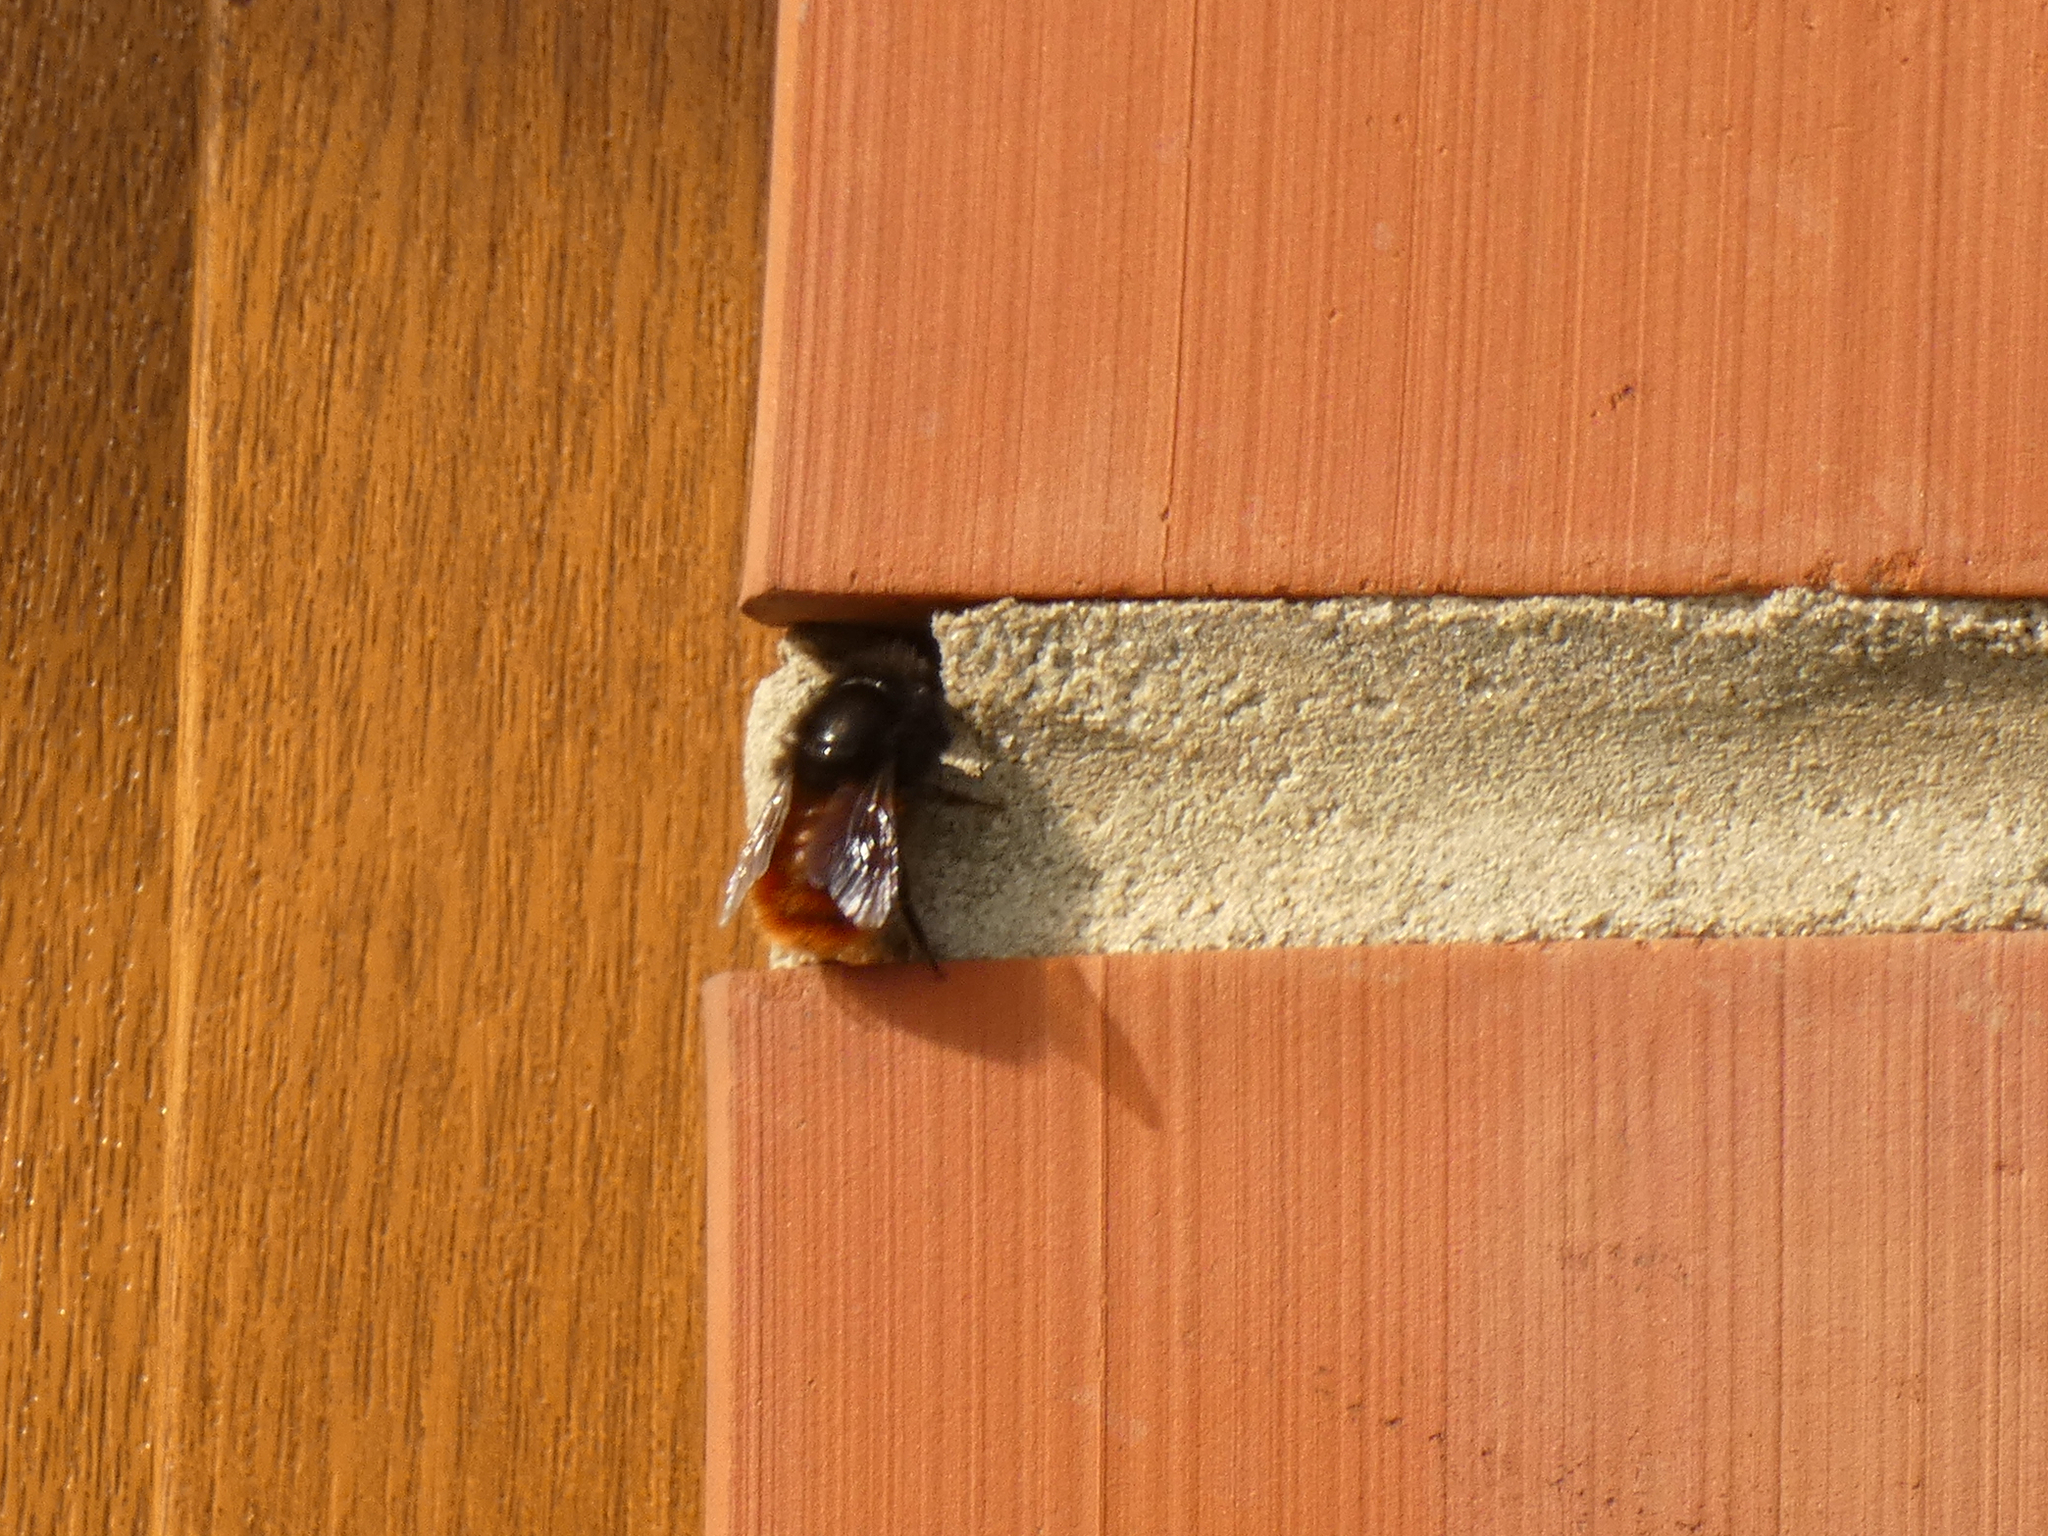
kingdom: Animalia
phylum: Arthropoda
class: Insecta
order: Hymenoptera
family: Megachilidae
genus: Osmia
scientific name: Osmia cornuta
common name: Mason bee
